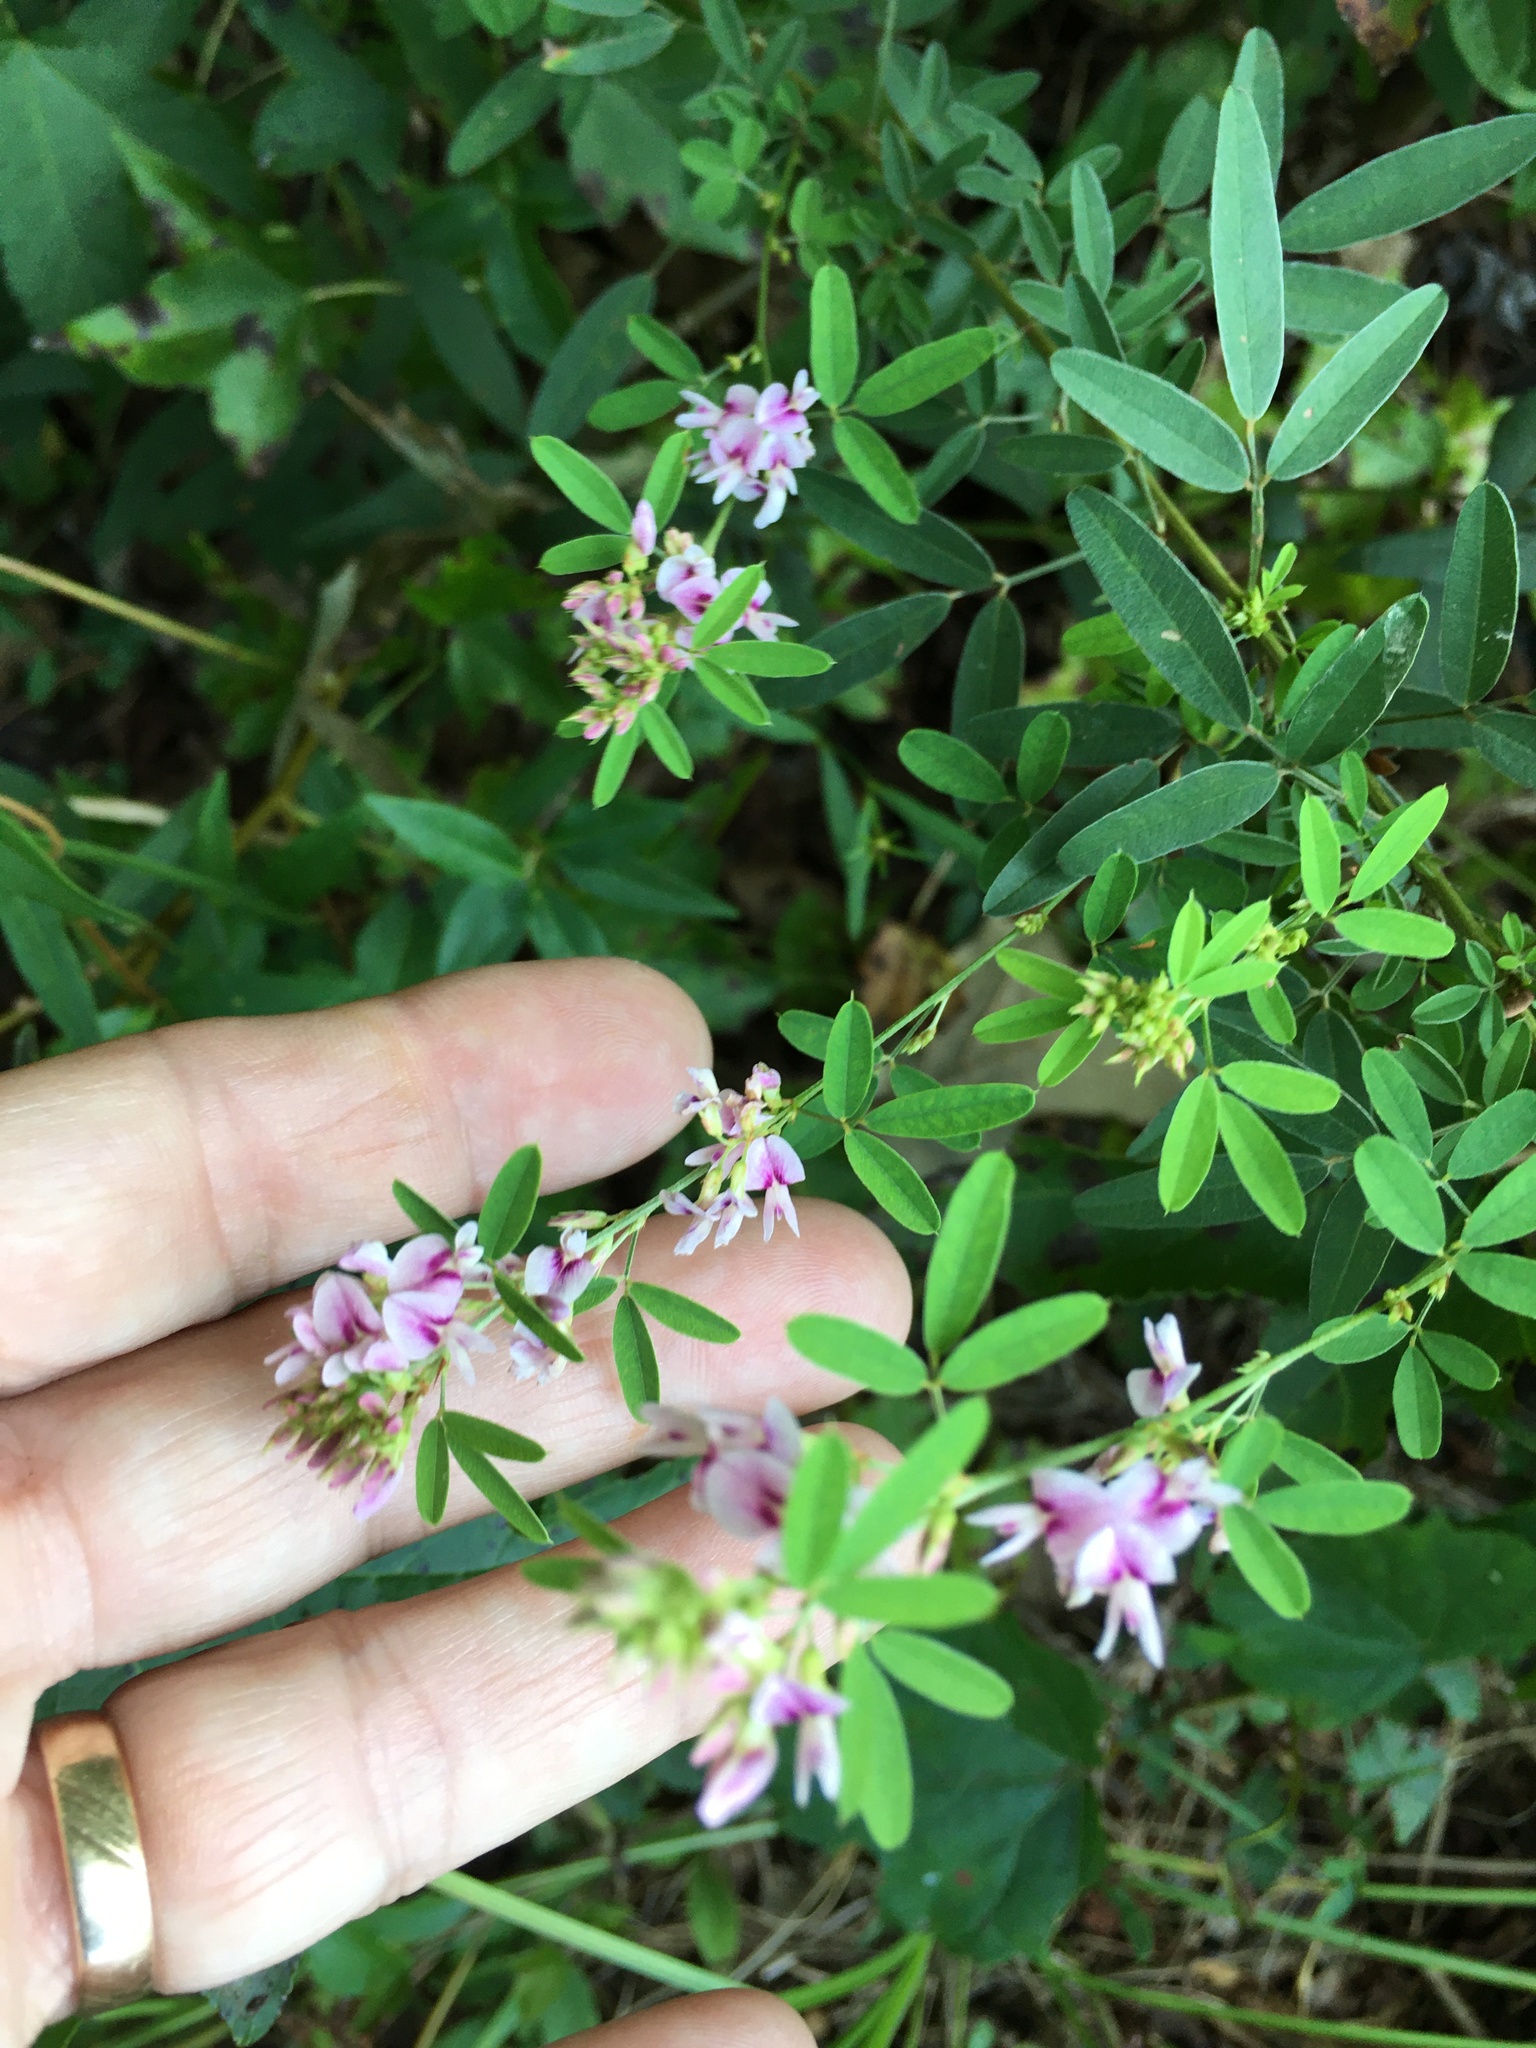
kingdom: Plantae
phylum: Tracheophyta
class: Magnoliopsida
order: Fabales
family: Fabaceae
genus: Lespedeza
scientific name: Lespedeza virginica
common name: Slender bush-clover
